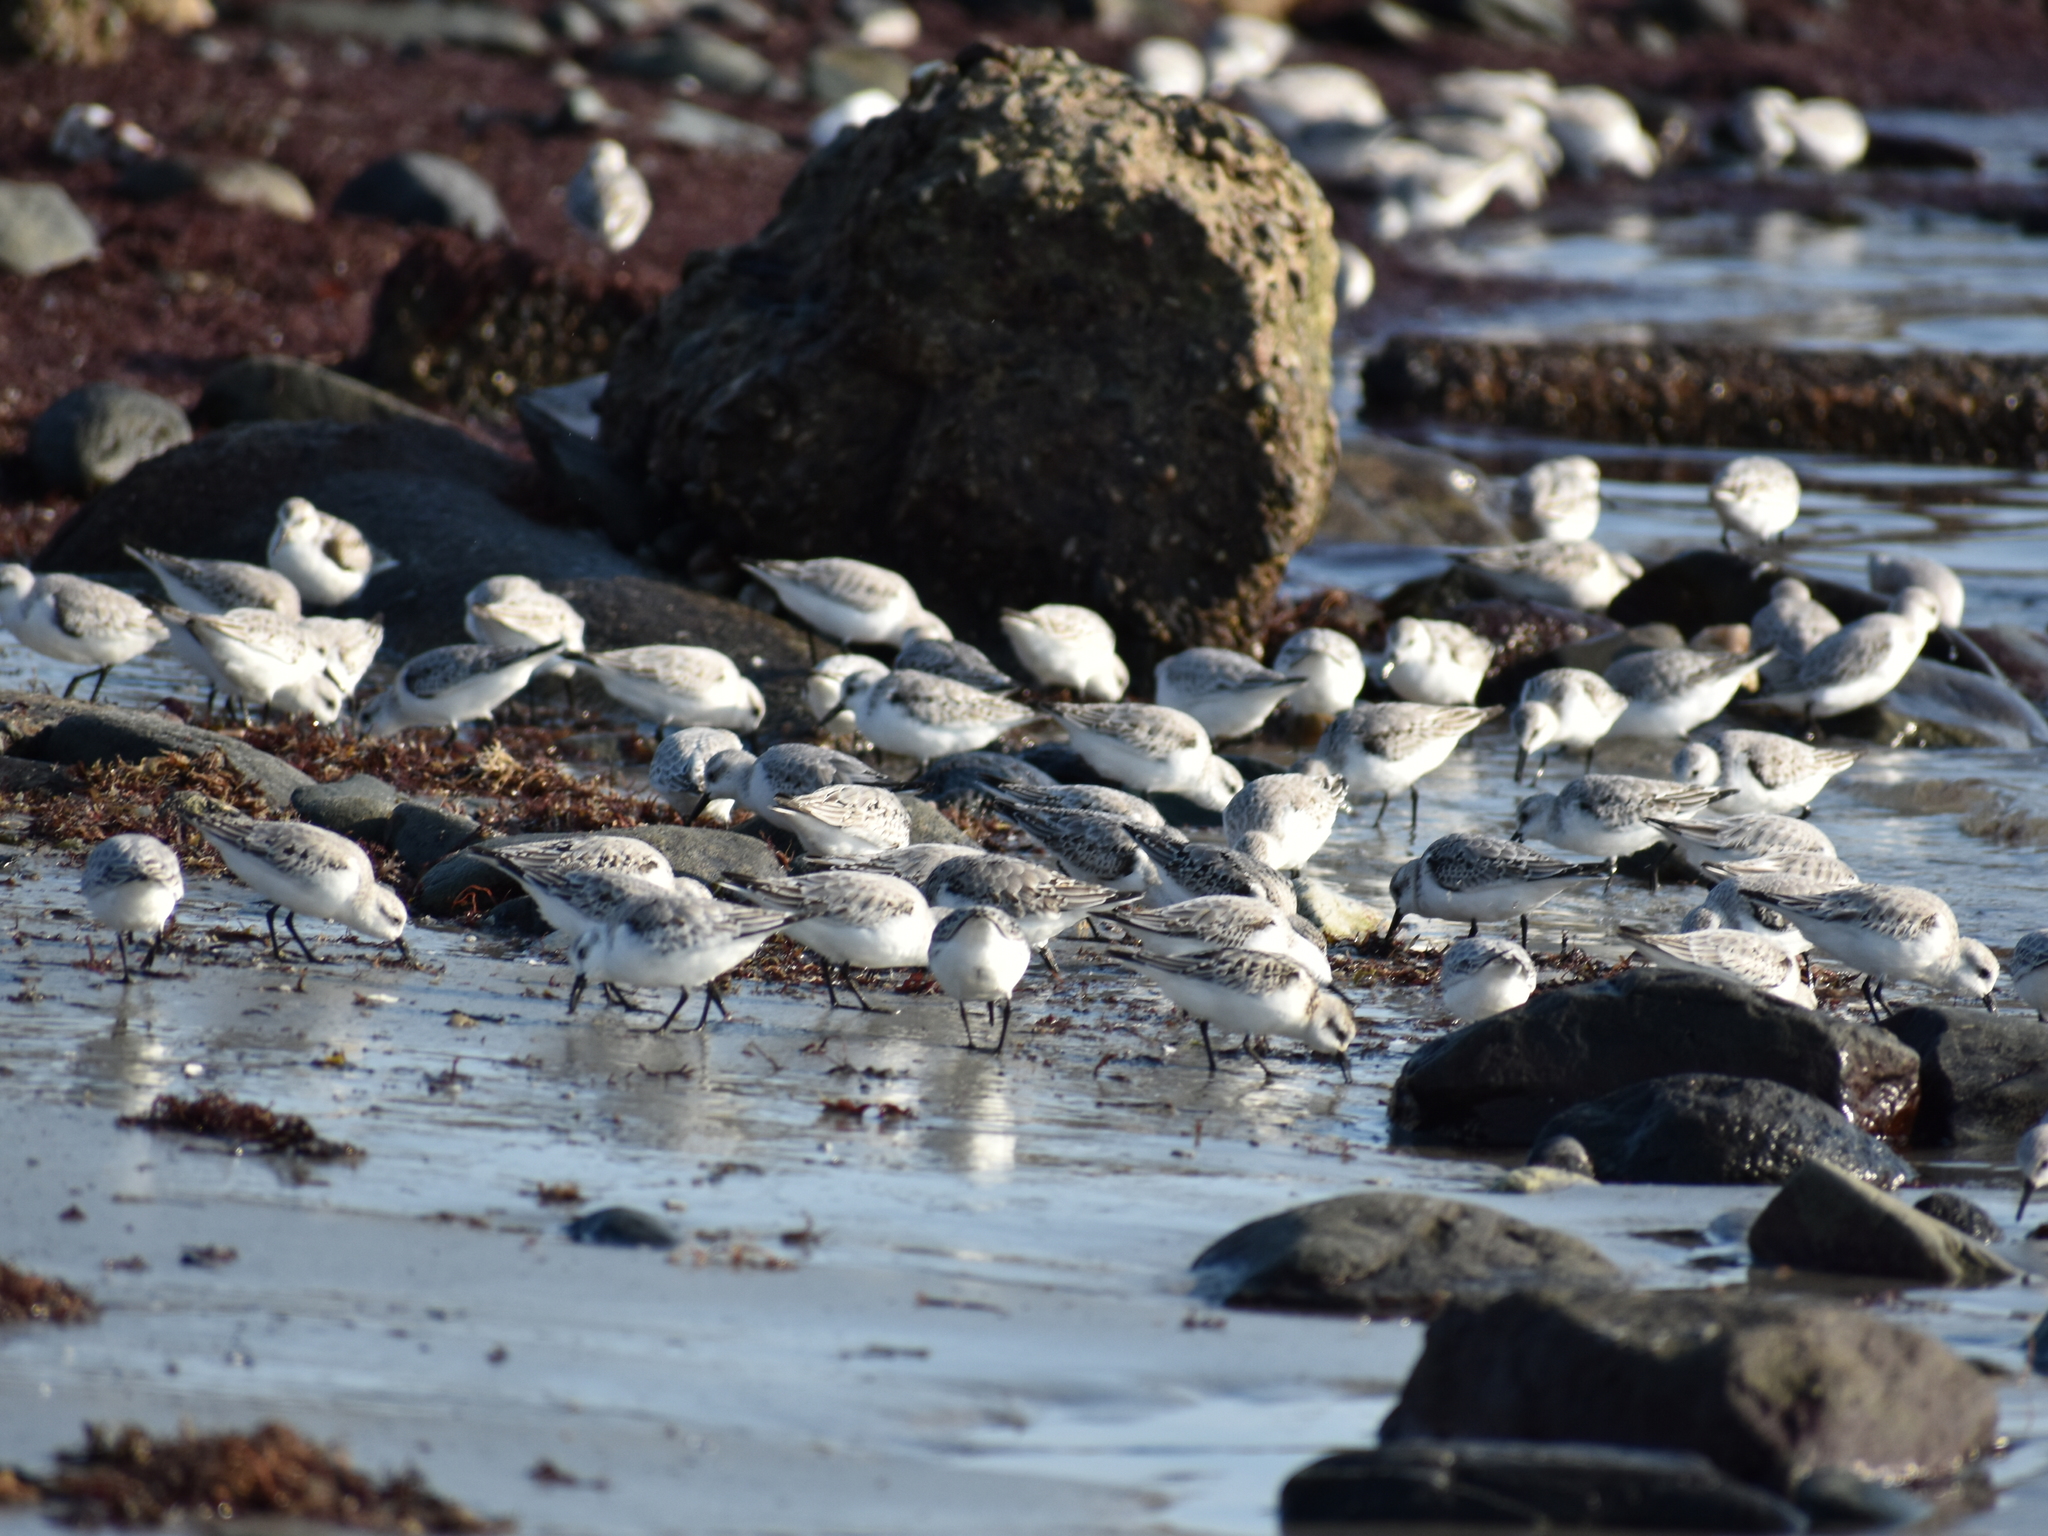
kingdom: Animalia
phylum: Chordata
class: Aves
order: Charadriiformes
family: Scolopacidae
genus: Calidris
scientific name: Calidris alba
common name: Sanderling
